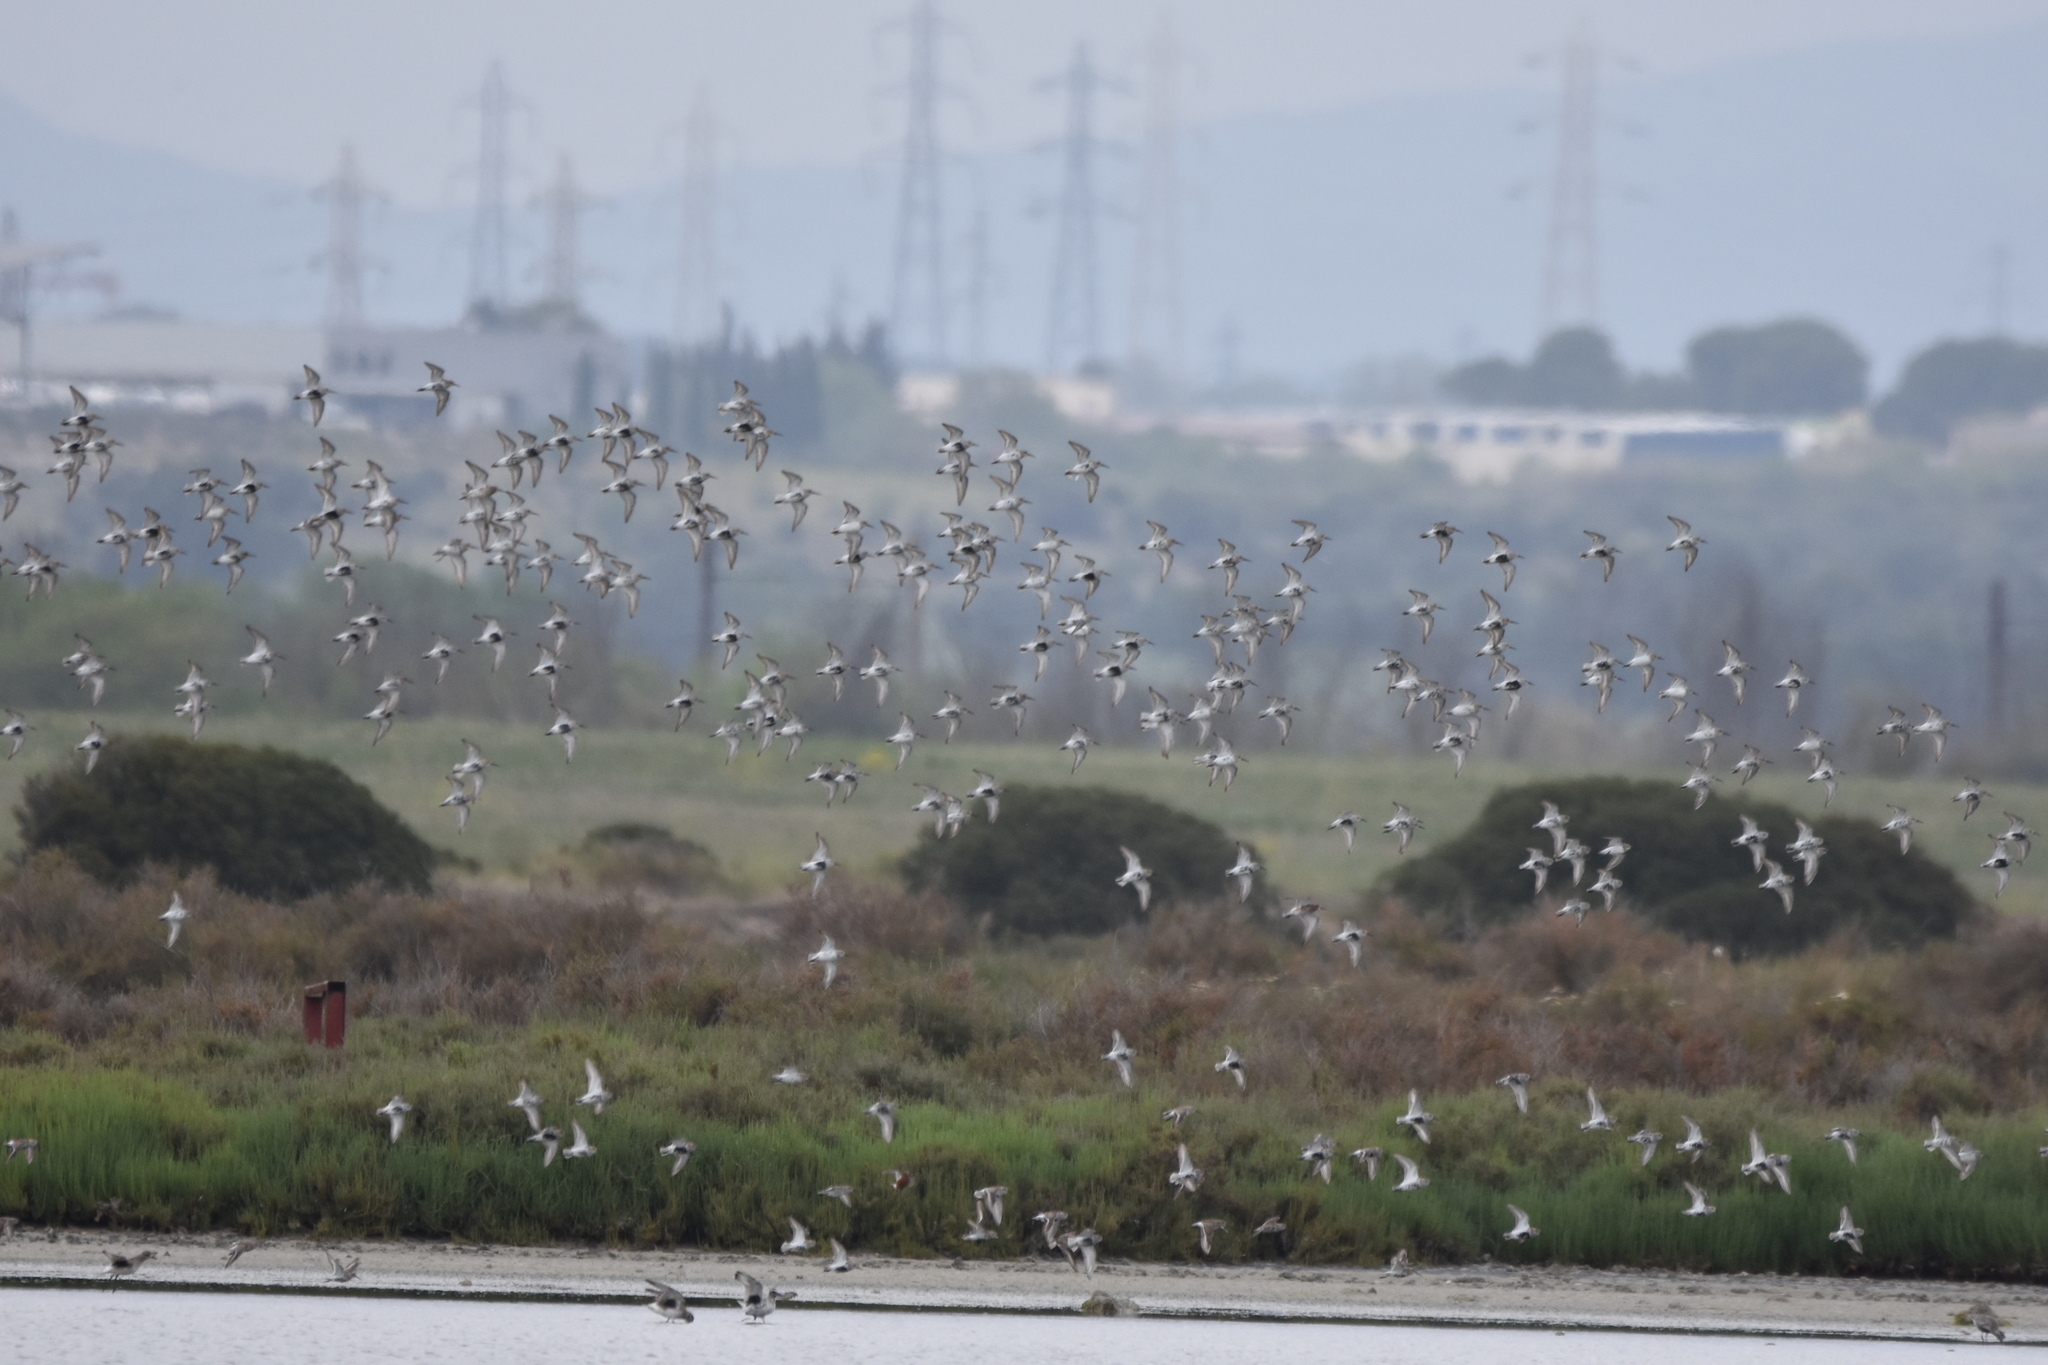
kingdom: Animalia
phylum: Chordata
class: Aves
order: Charadriiformes
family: Scolopacidae
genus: Calidris
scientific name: Calidris alpina
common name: Dunlin
